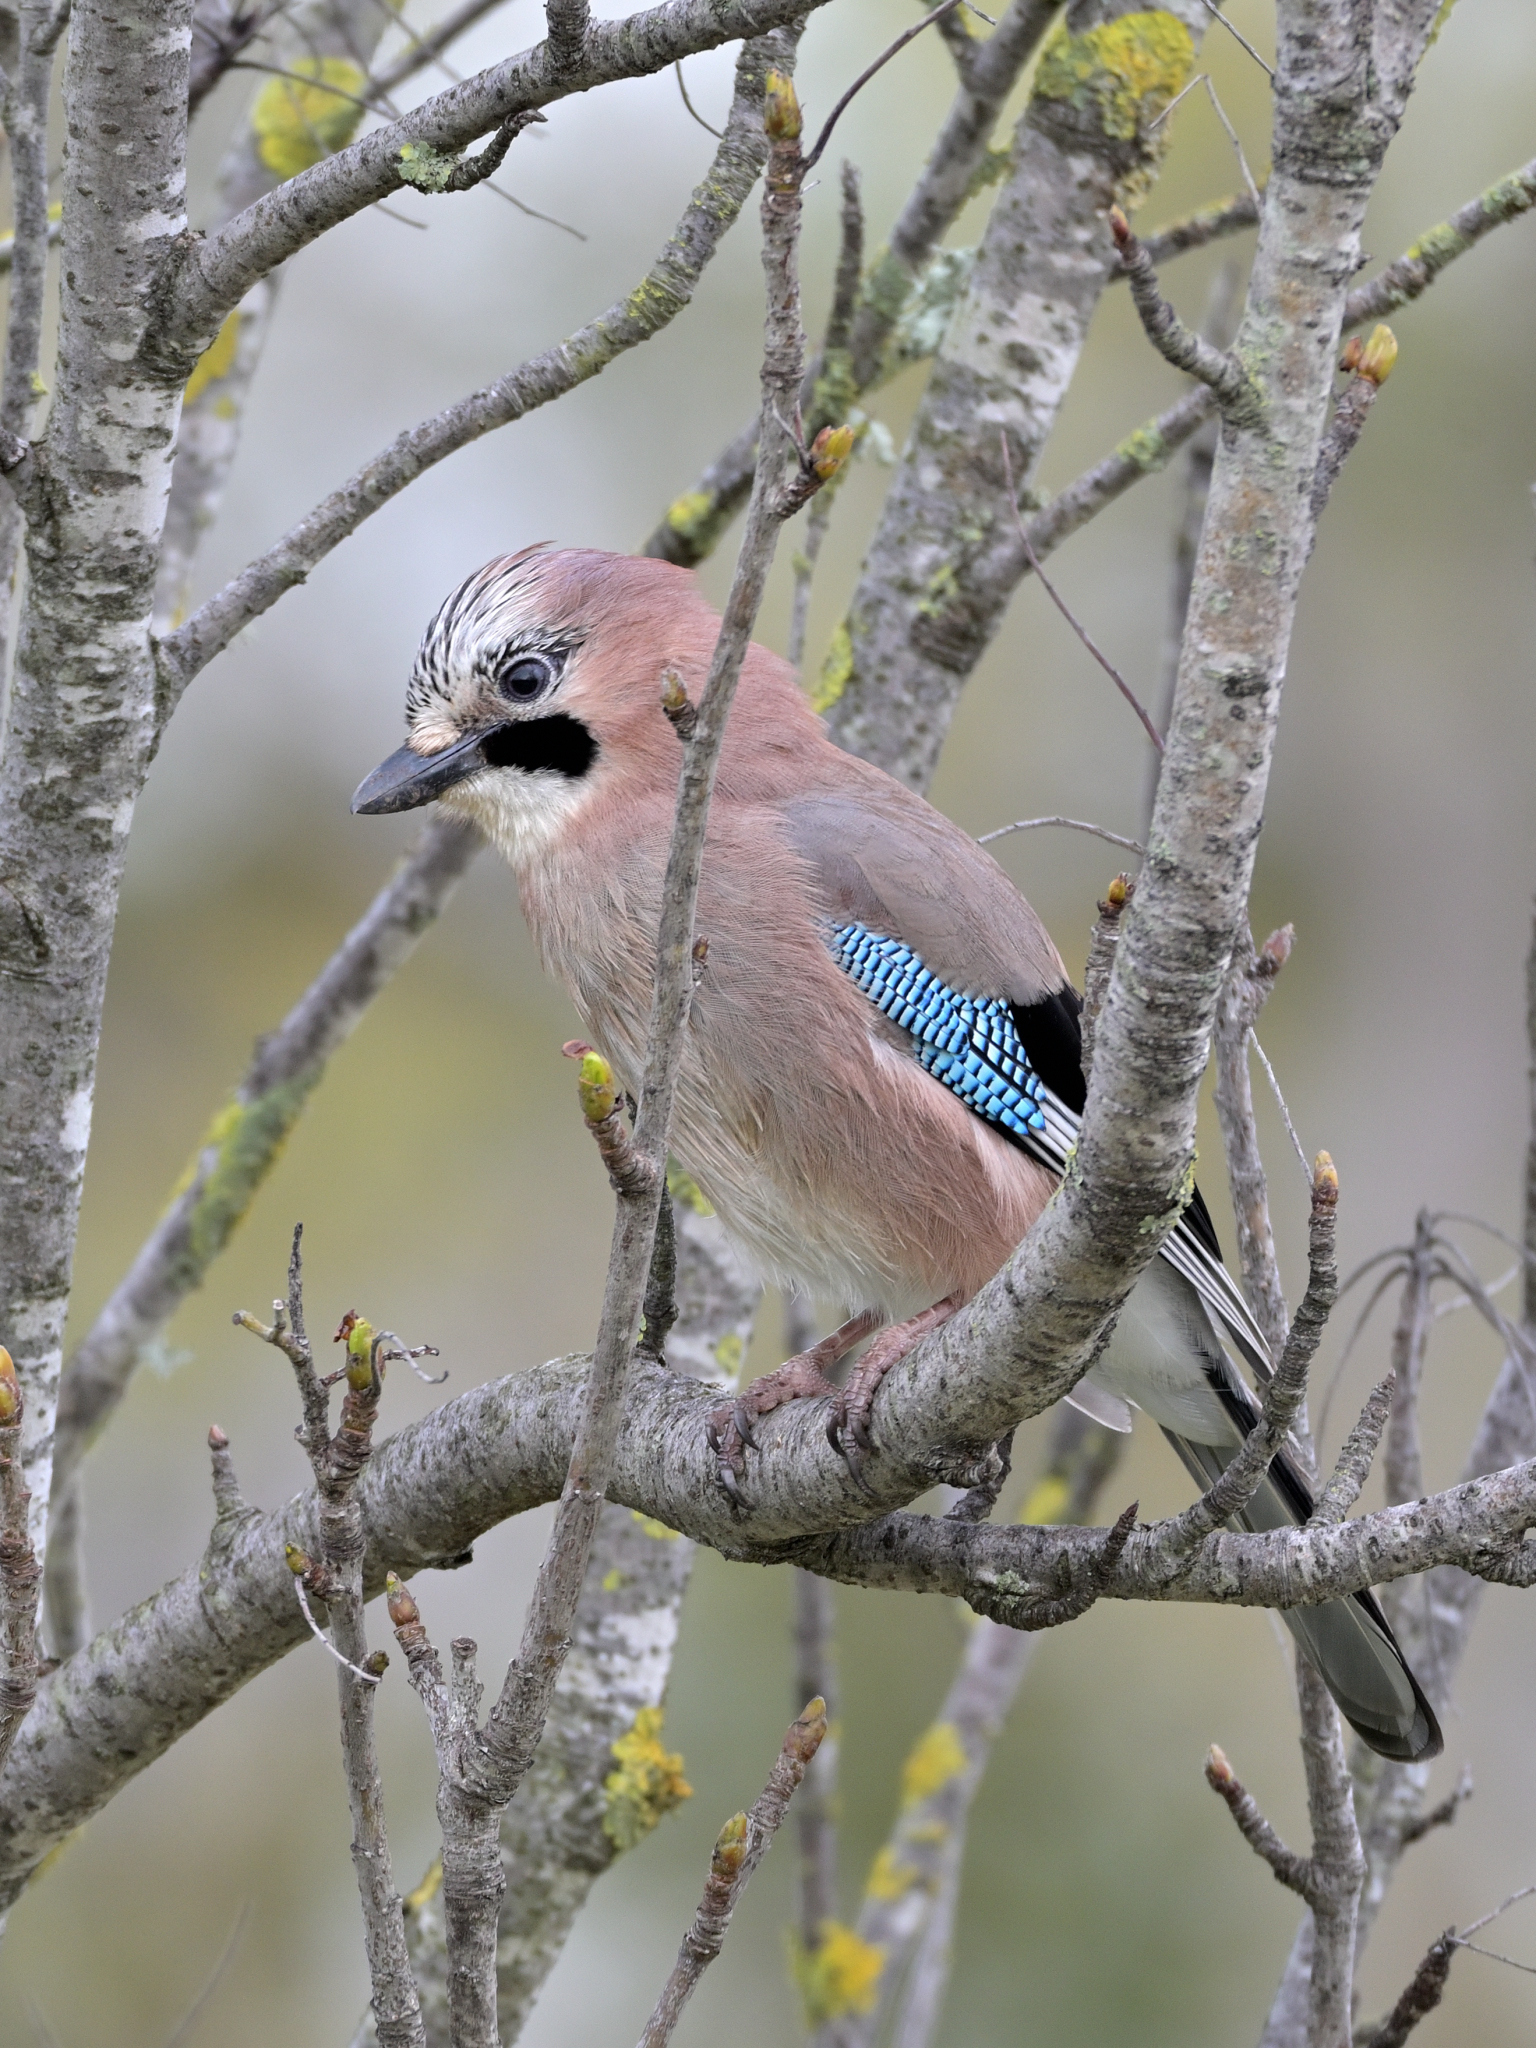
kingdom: Animalia
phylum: Chordata
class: Aves
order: Passeriformes
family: Corvidae
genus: Garrulus
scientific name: Garrulus glandarius
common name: Eurasian jay
